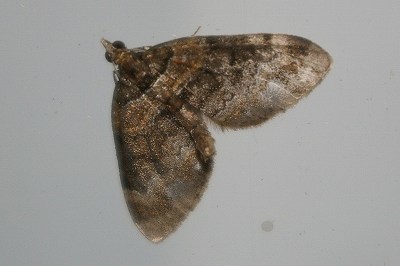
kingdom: Animalia
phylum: Arthropoda
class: Insecta
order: Lepidoptera
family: Geometridae
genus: Martania
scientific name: Martania
